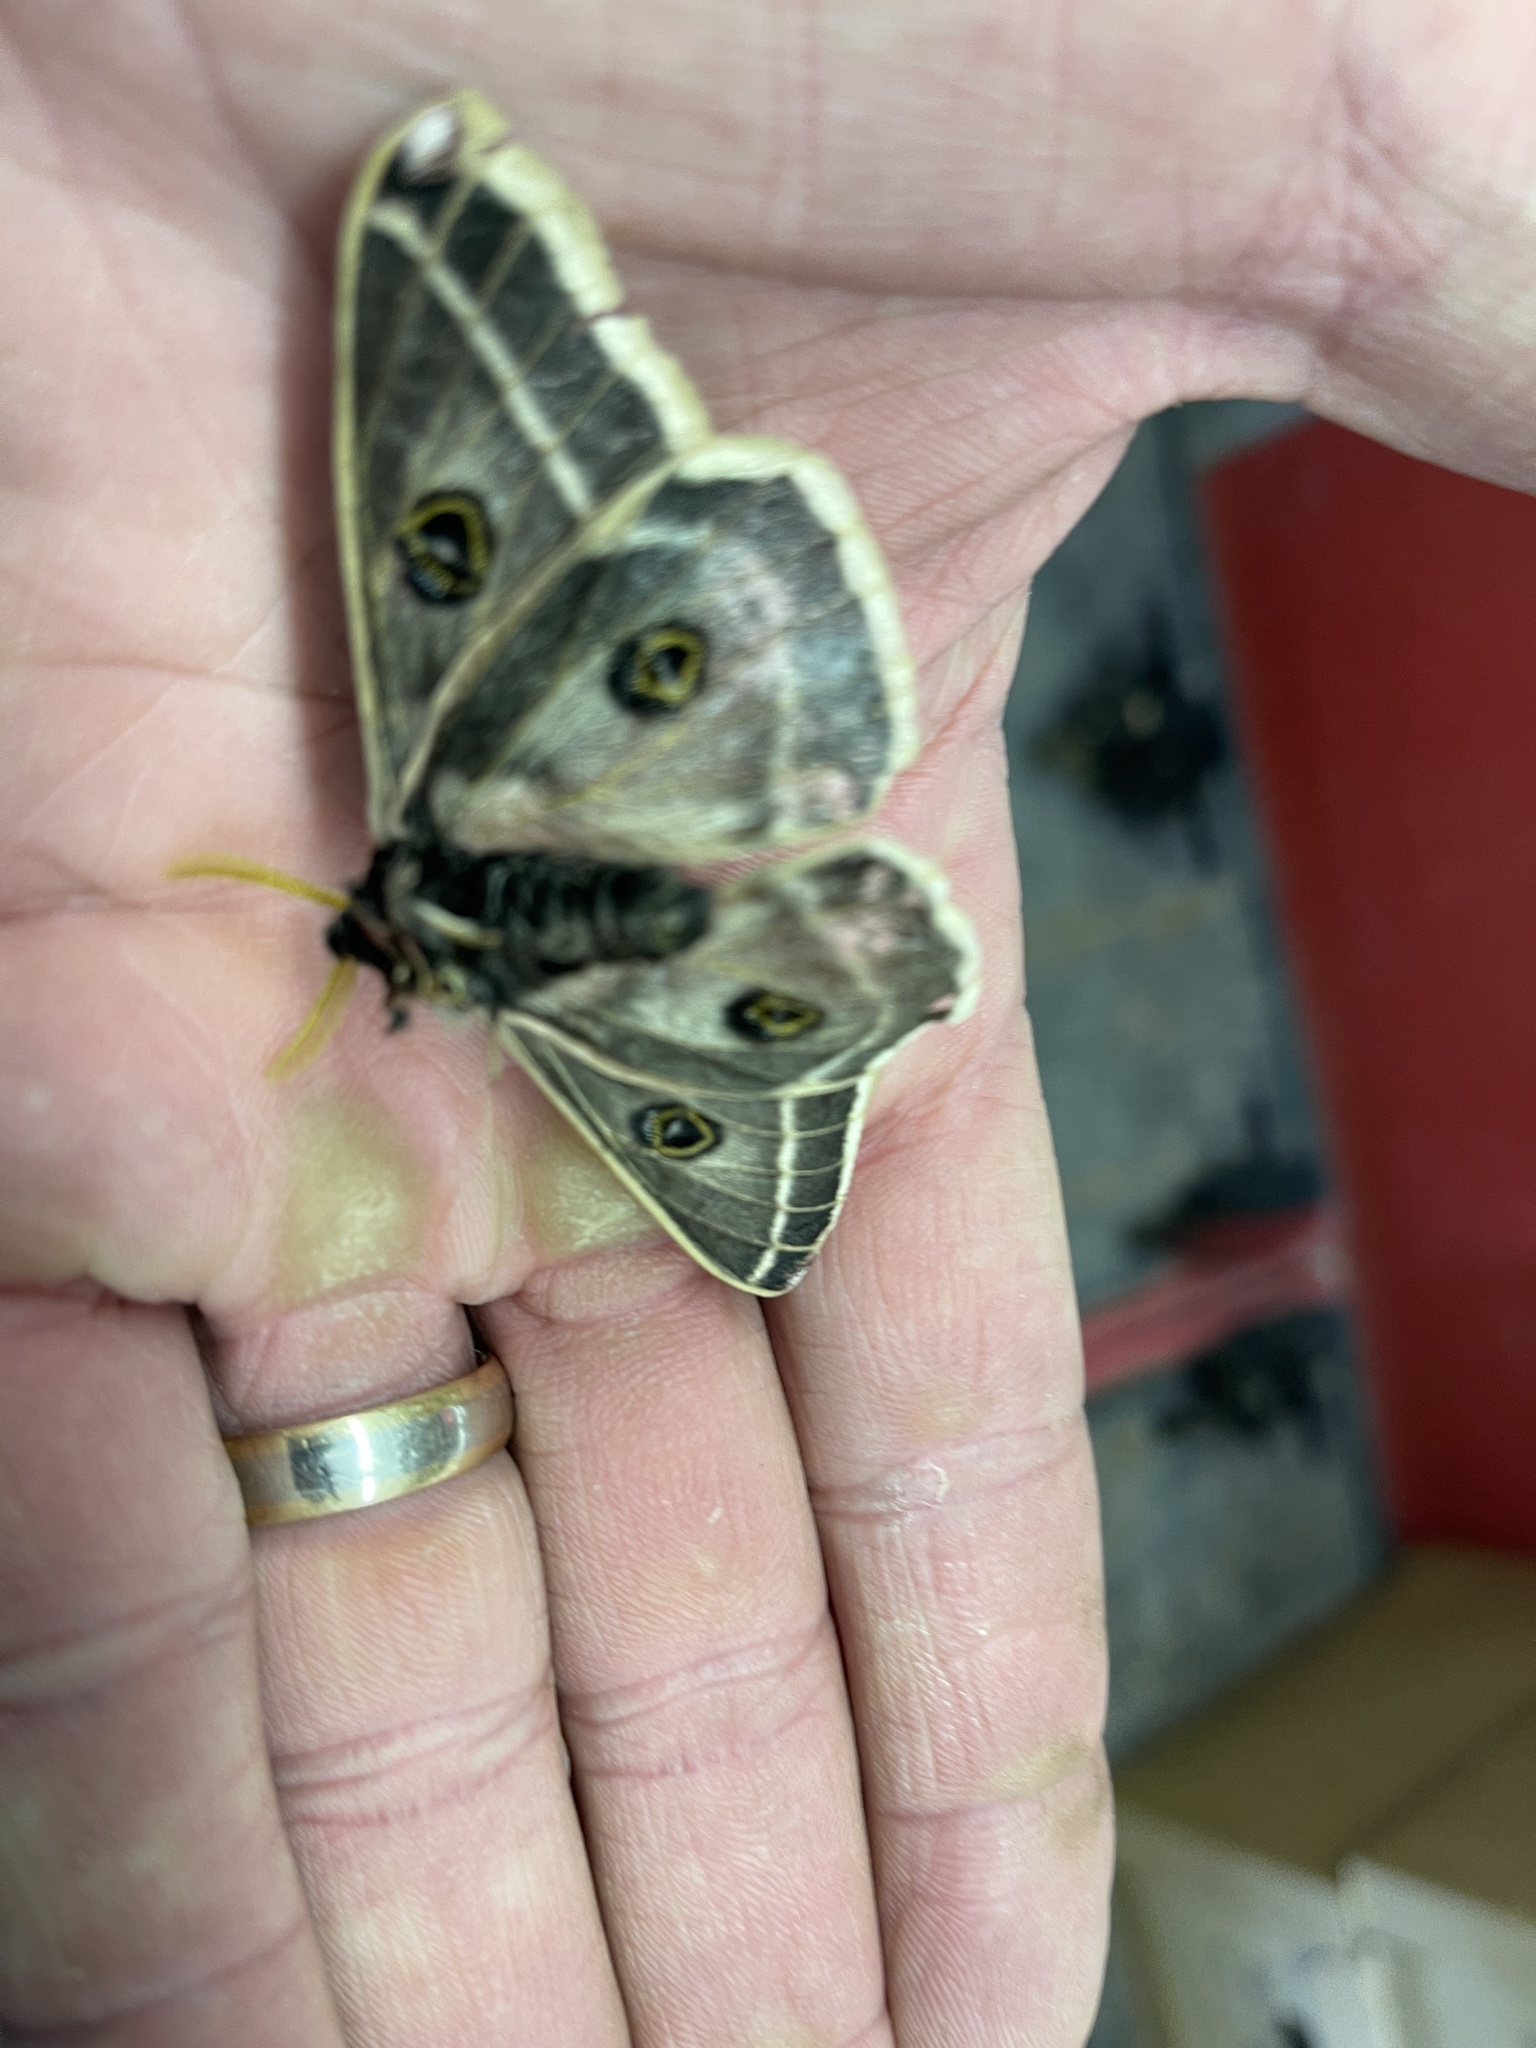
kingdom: Animalia
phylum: Arthropoda
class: Insecta
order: Lepidoptera
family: Saturniidae
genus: Agapema
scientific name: Agapema homogena
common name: Rocky mountain agapema
